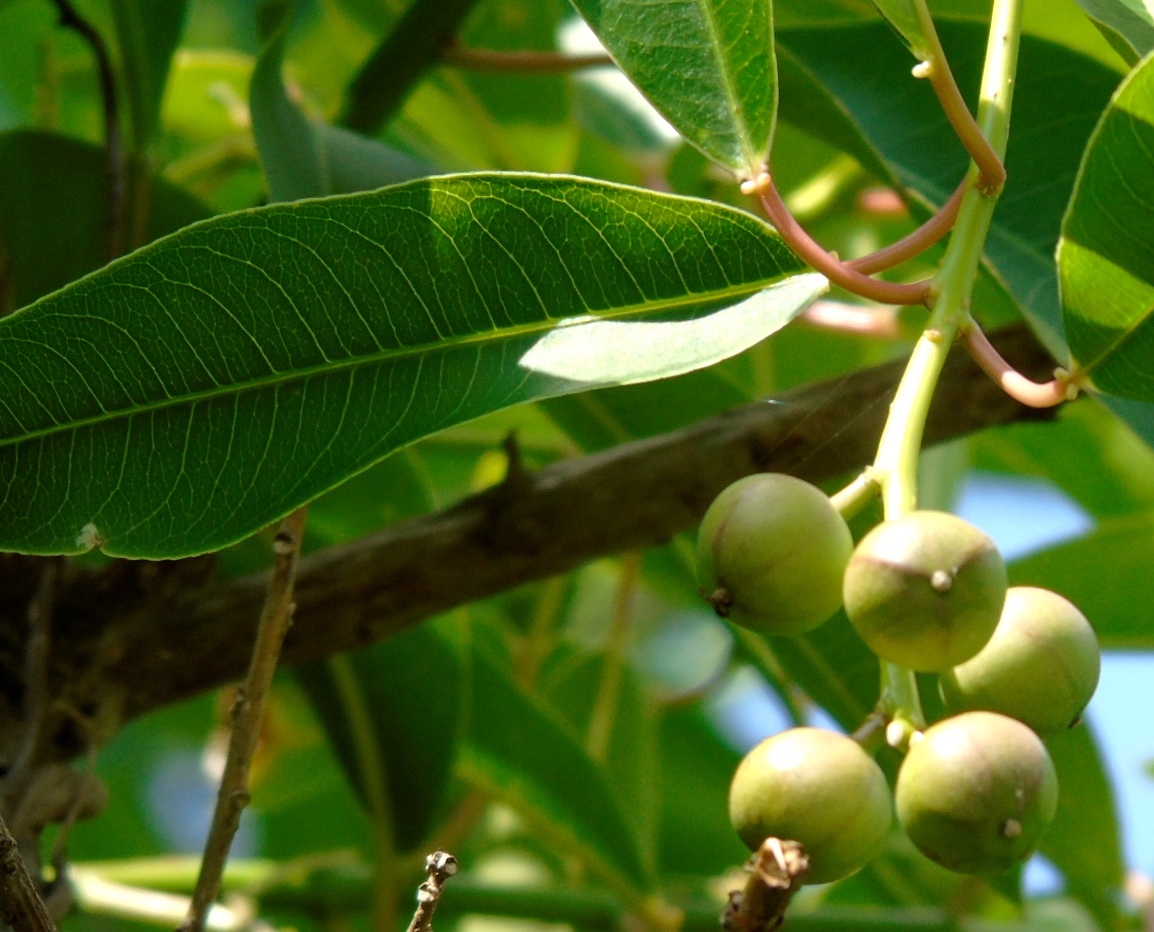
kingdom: Plantae
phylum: Tracheophyta
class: Magnoliopsida
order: Malpighiales
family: Euphorbiaceae
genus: Sapium
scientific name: Sapium lateriflorum
